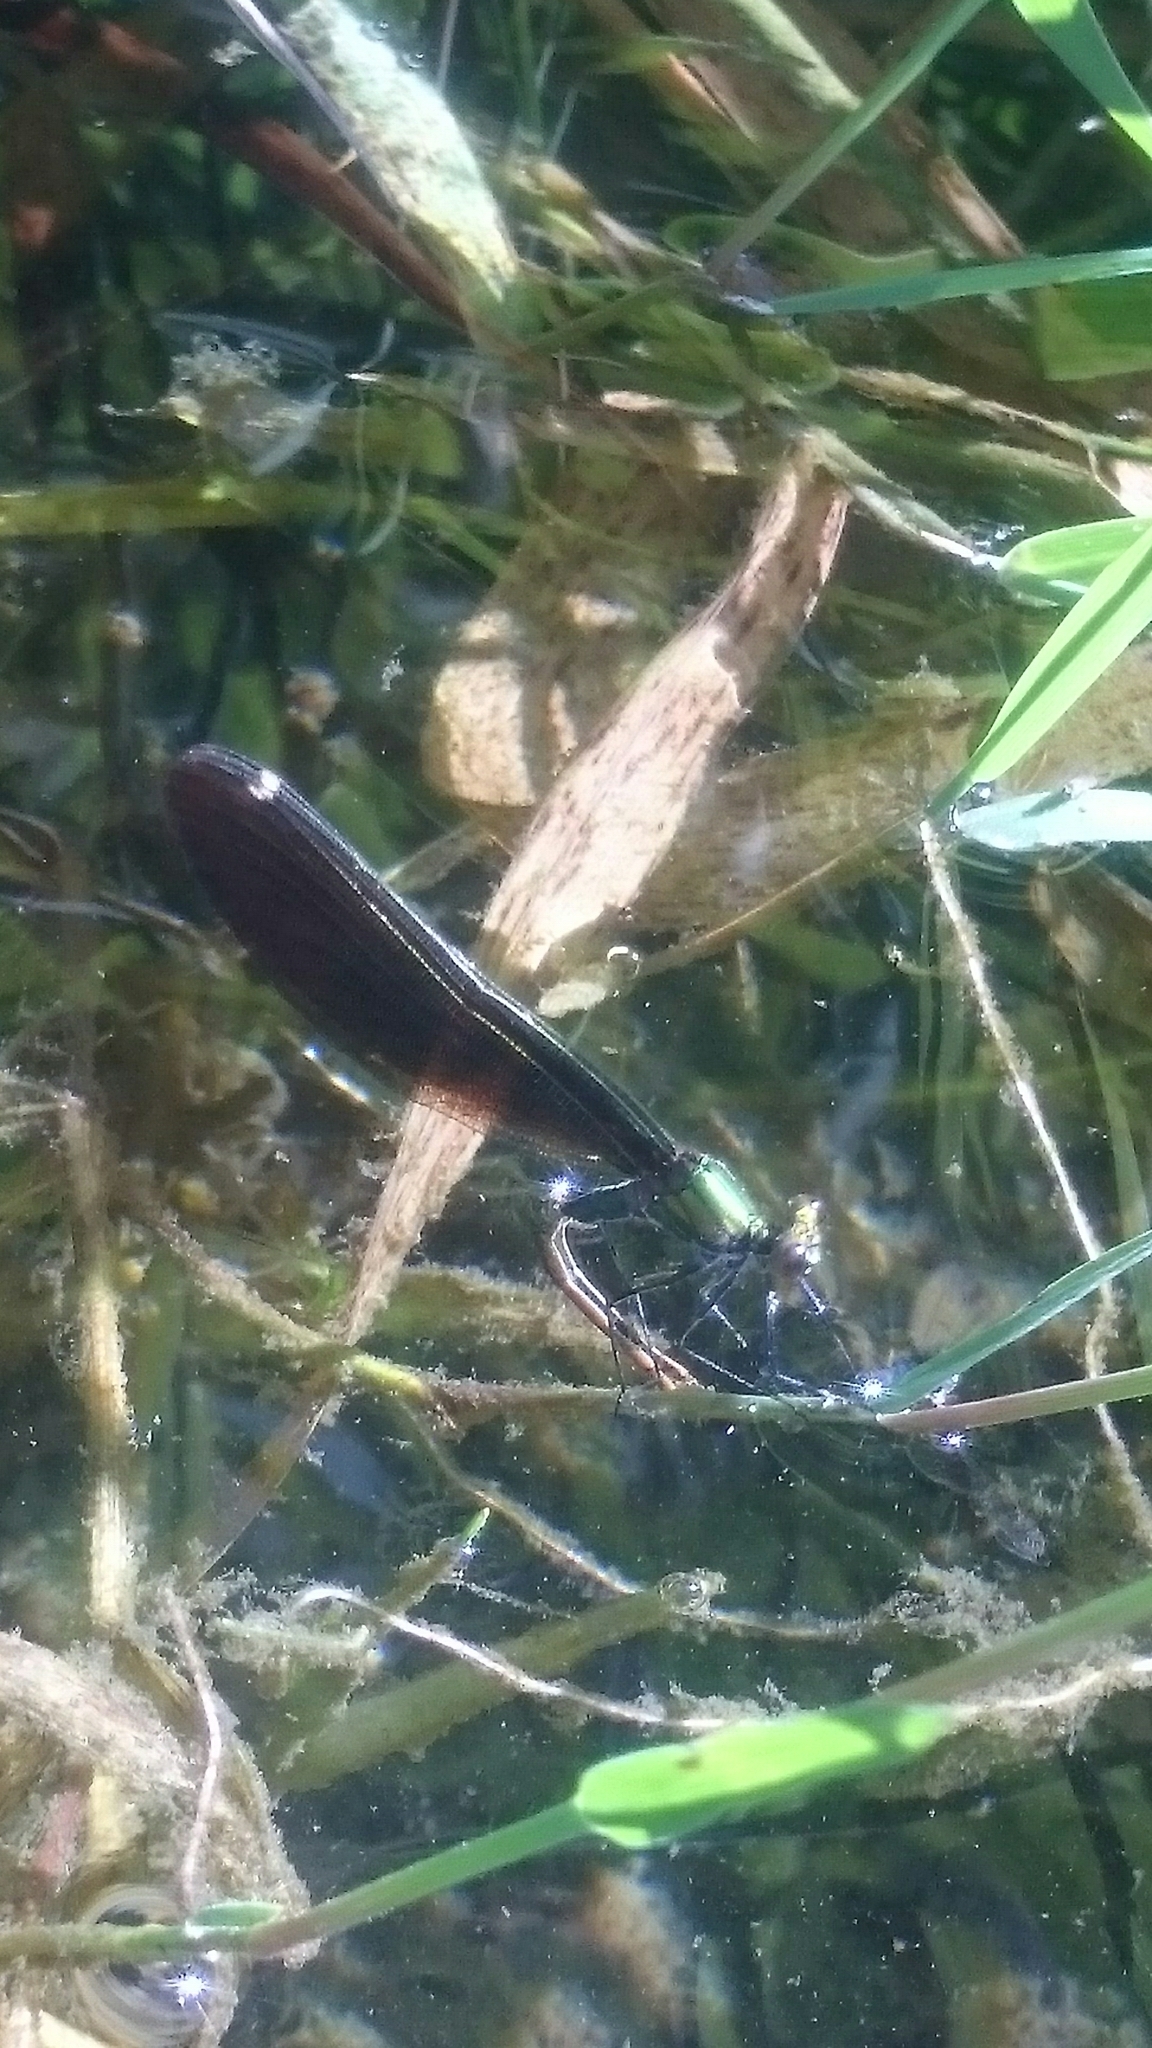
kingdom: Animalia
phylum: Arthropoda
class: Insecta
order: Odonata
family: Calopterygidae
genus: Calopteryx
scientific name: Calopteryx virgo
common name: Beautiful demoiselle
